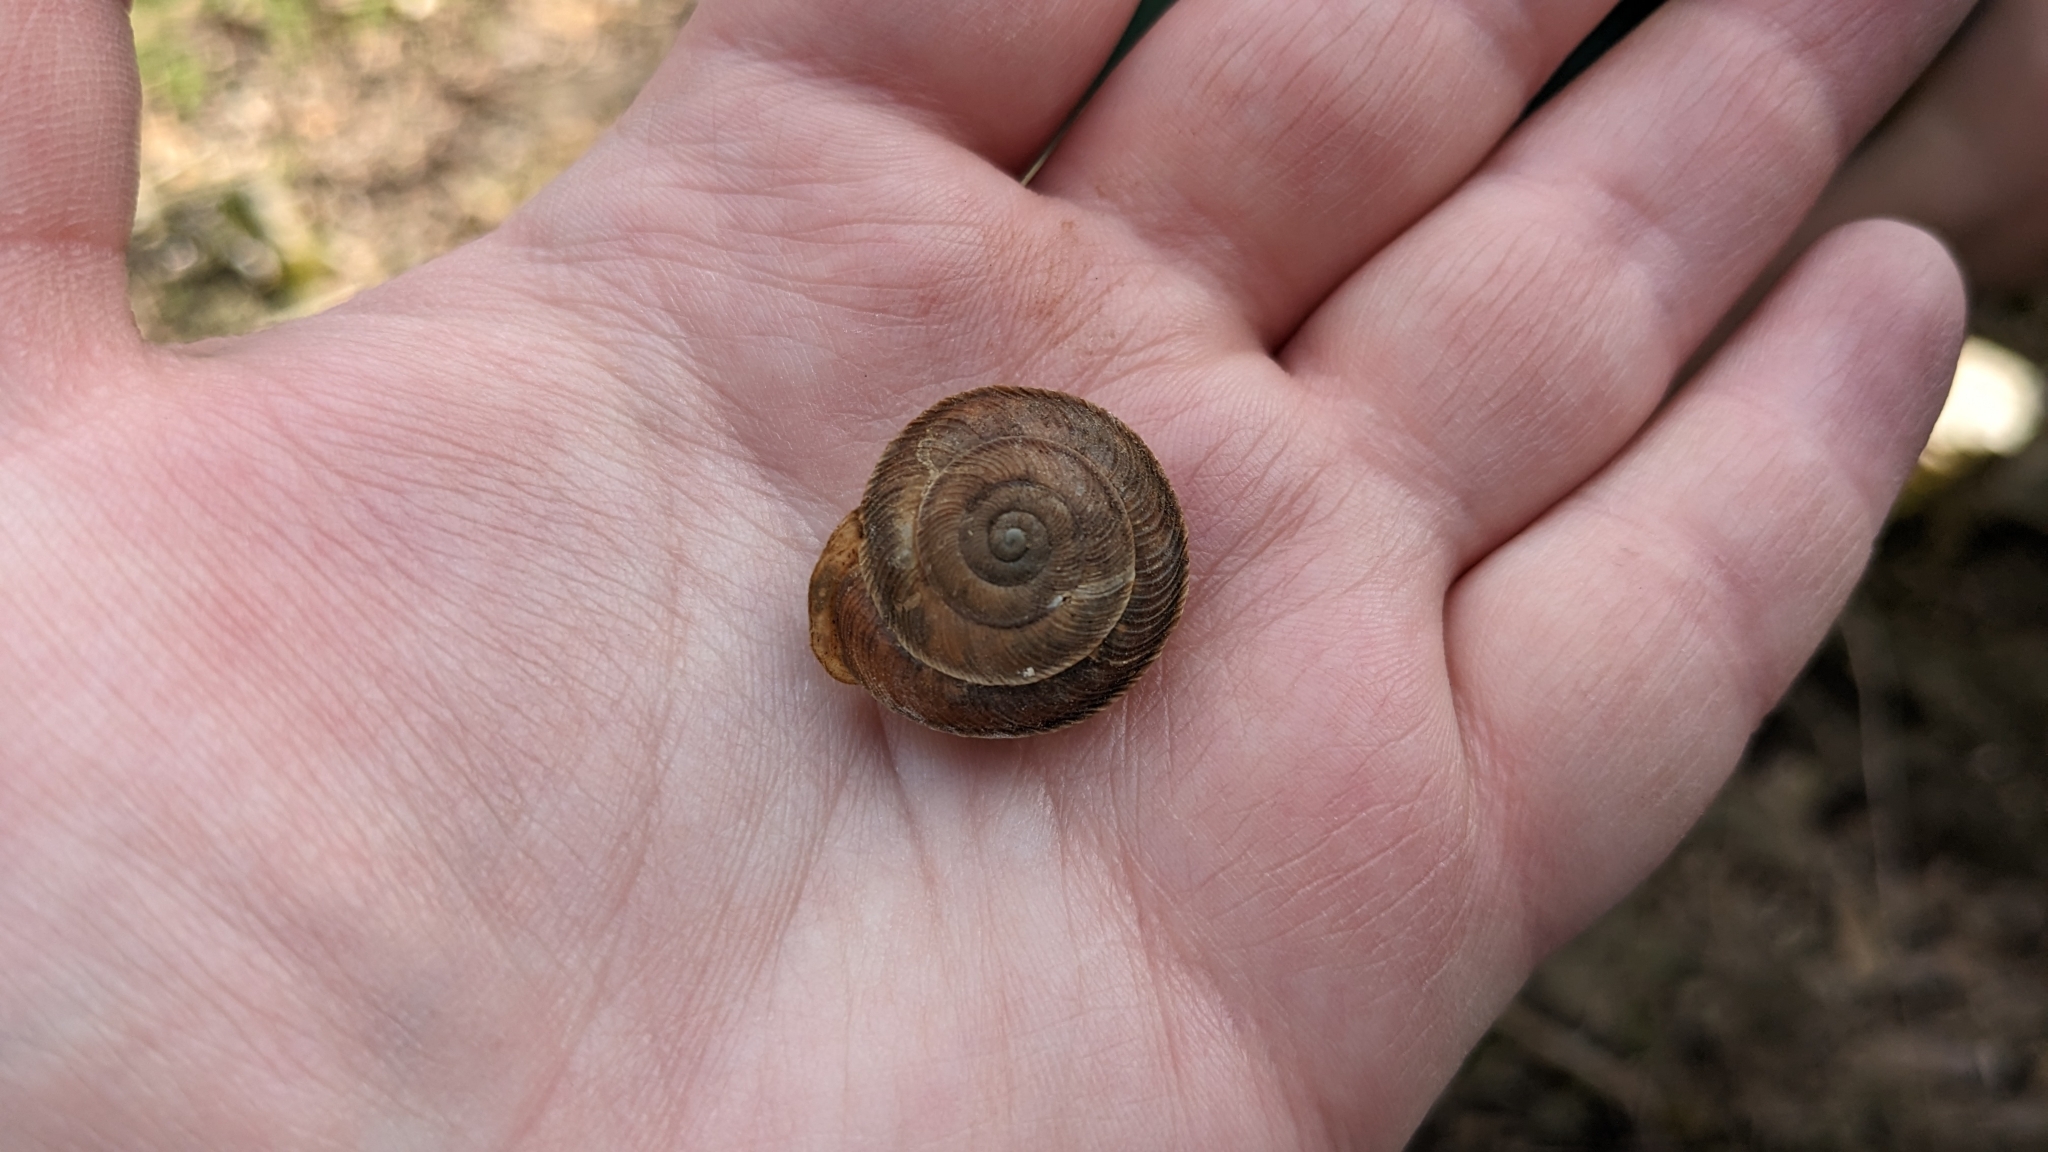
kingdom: Animalia
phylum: Mollusca
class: Gastropoda
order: Stylommatophora
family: Polygyridae
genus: Xolotrema
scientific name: Xolotrema obstrictum
